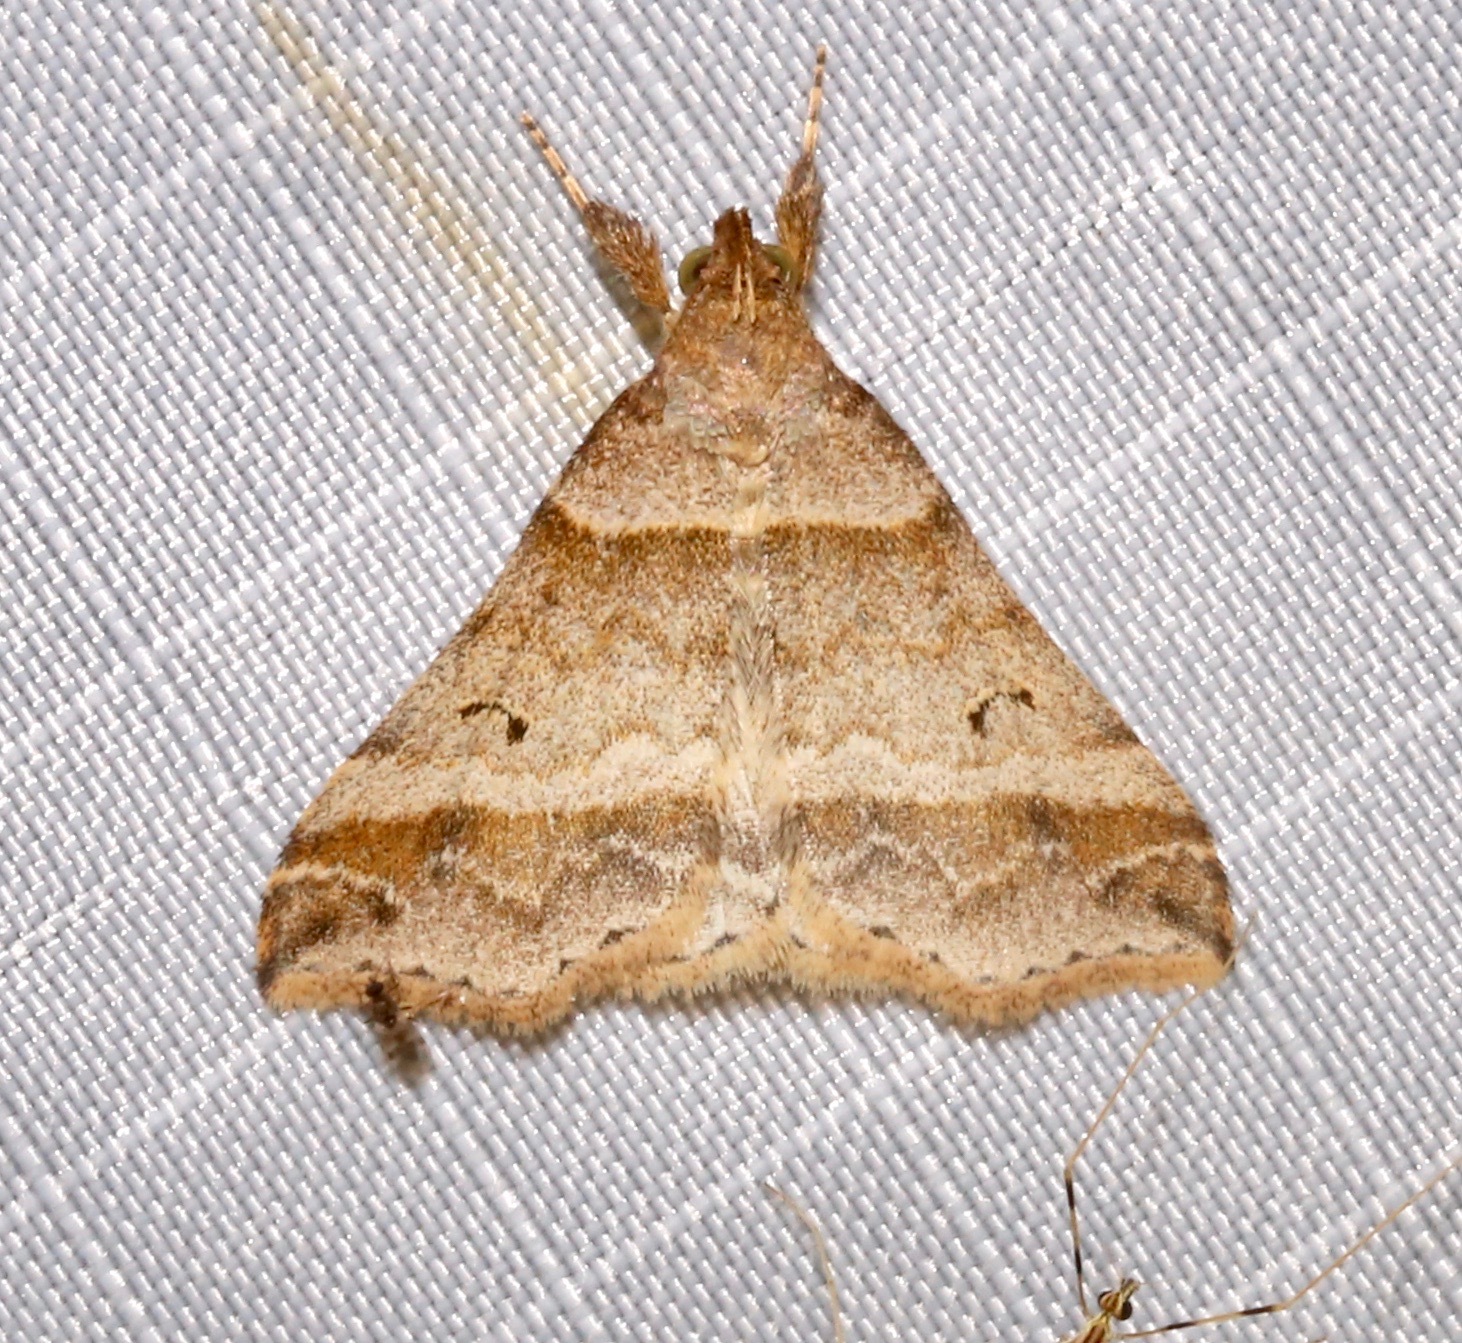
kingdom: Animalia
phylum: Arthropoda
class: Insecta
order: Lepidoptera
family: Erebidae
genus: Phaeolita
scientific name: Phaeolita pyramusalis
